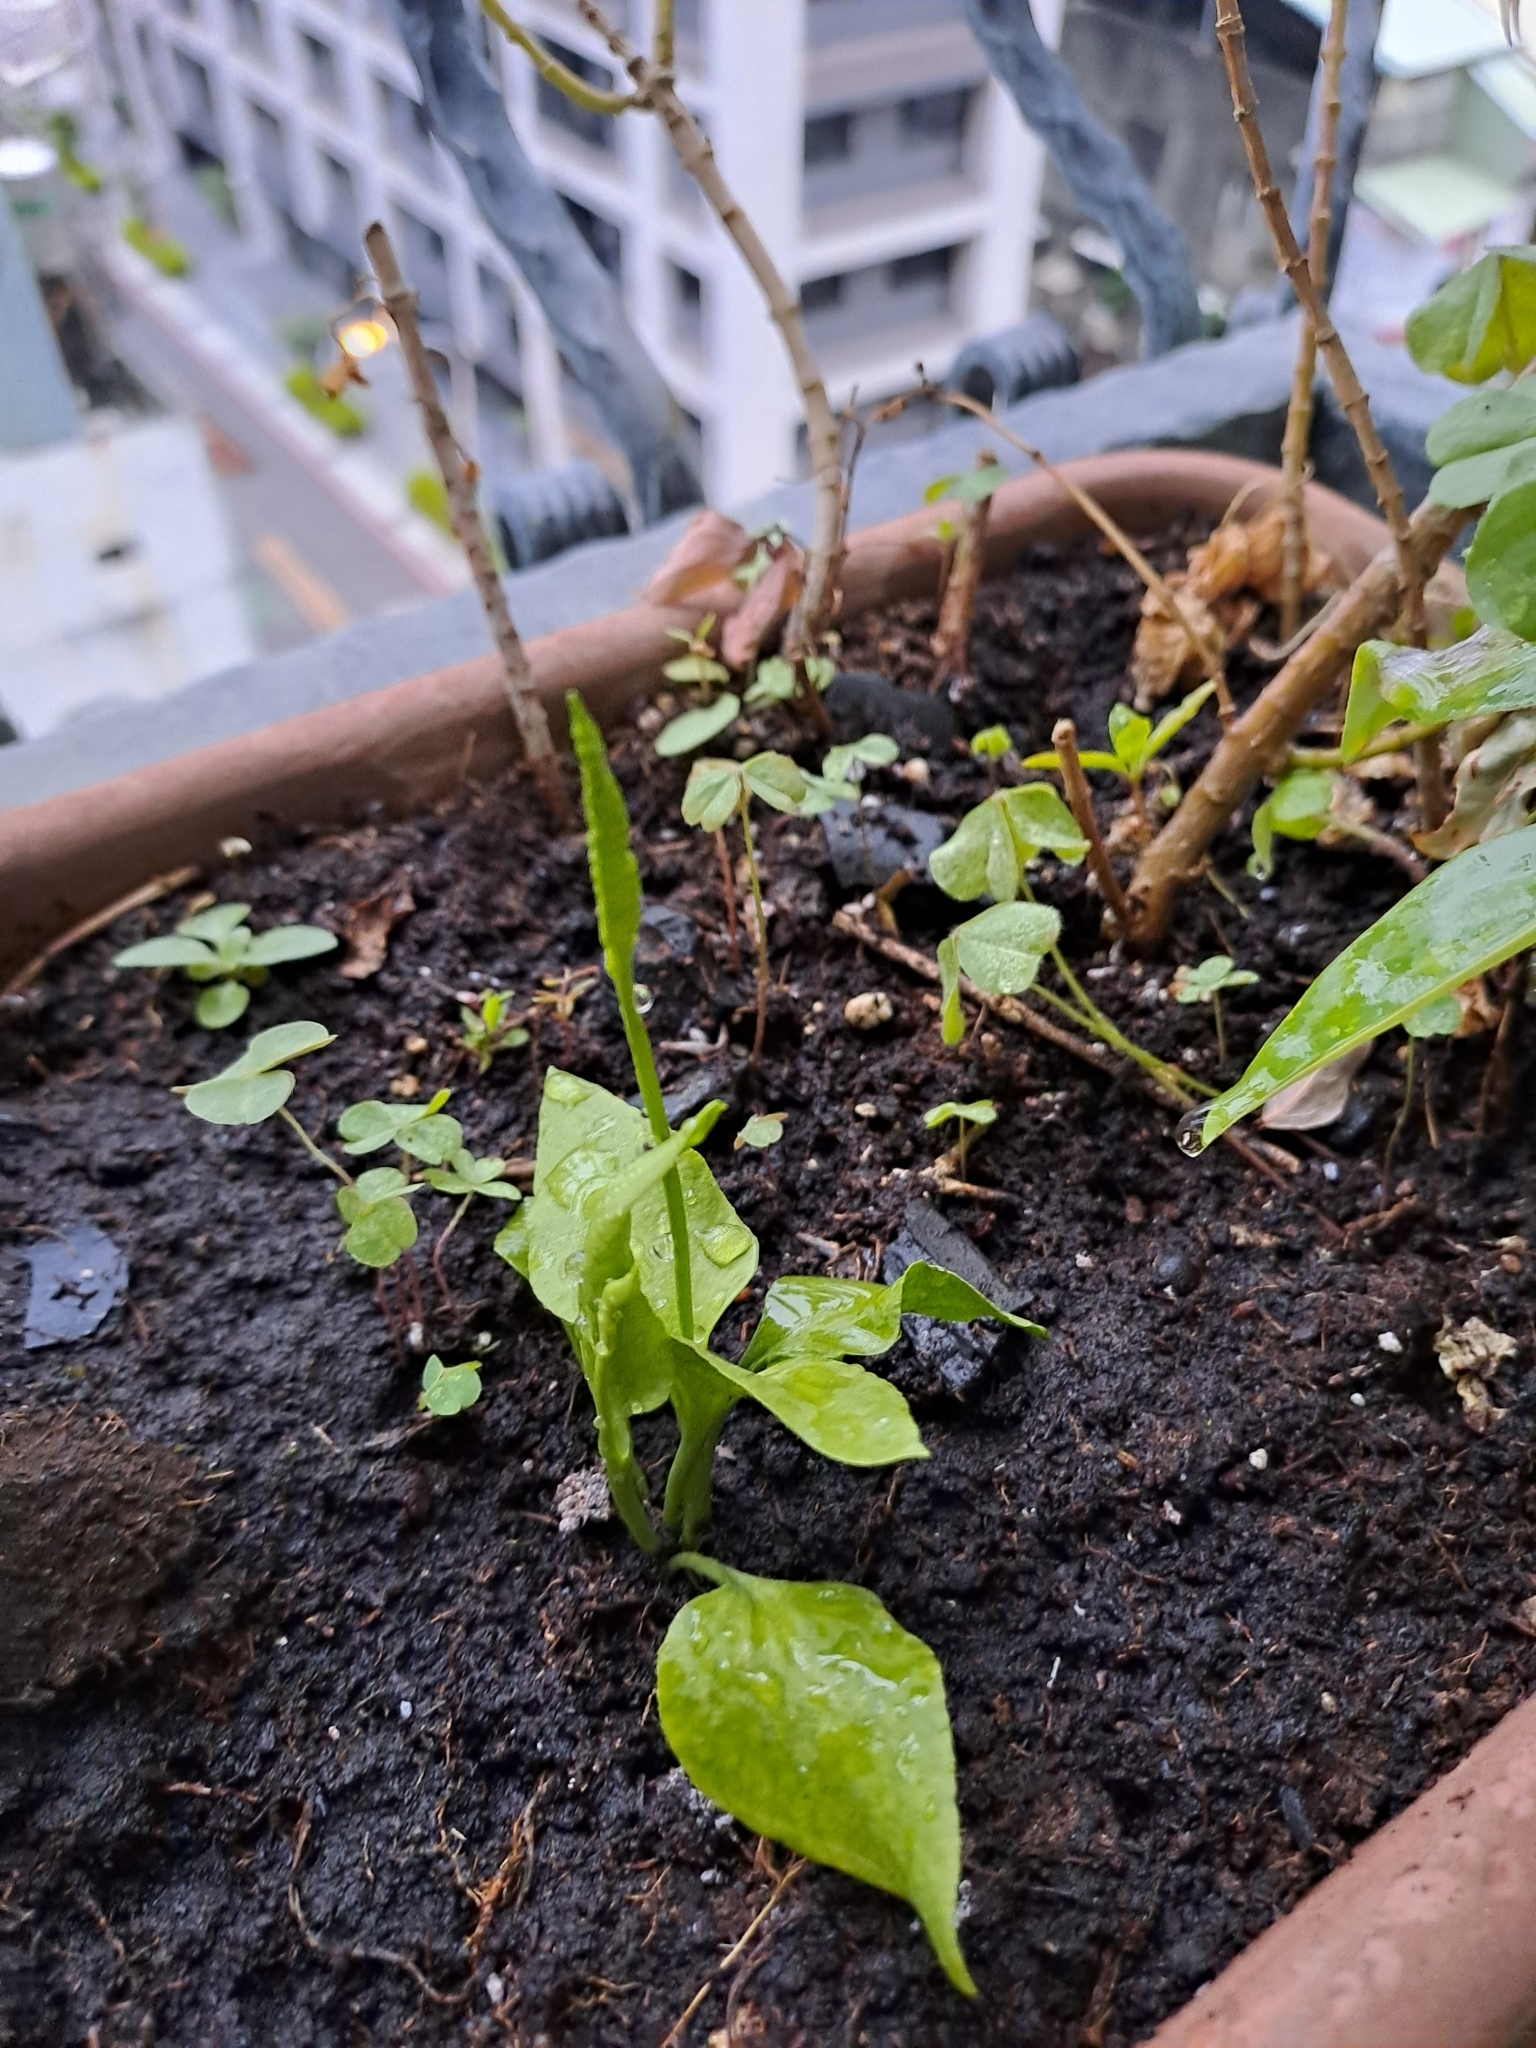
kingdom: Plantae
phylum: Tracheophyta
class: Polypodiopsida
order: Ophioglossales
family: Ophioglossaceae
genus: Ophioglossum
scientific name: Ophioglossum petiolatum
